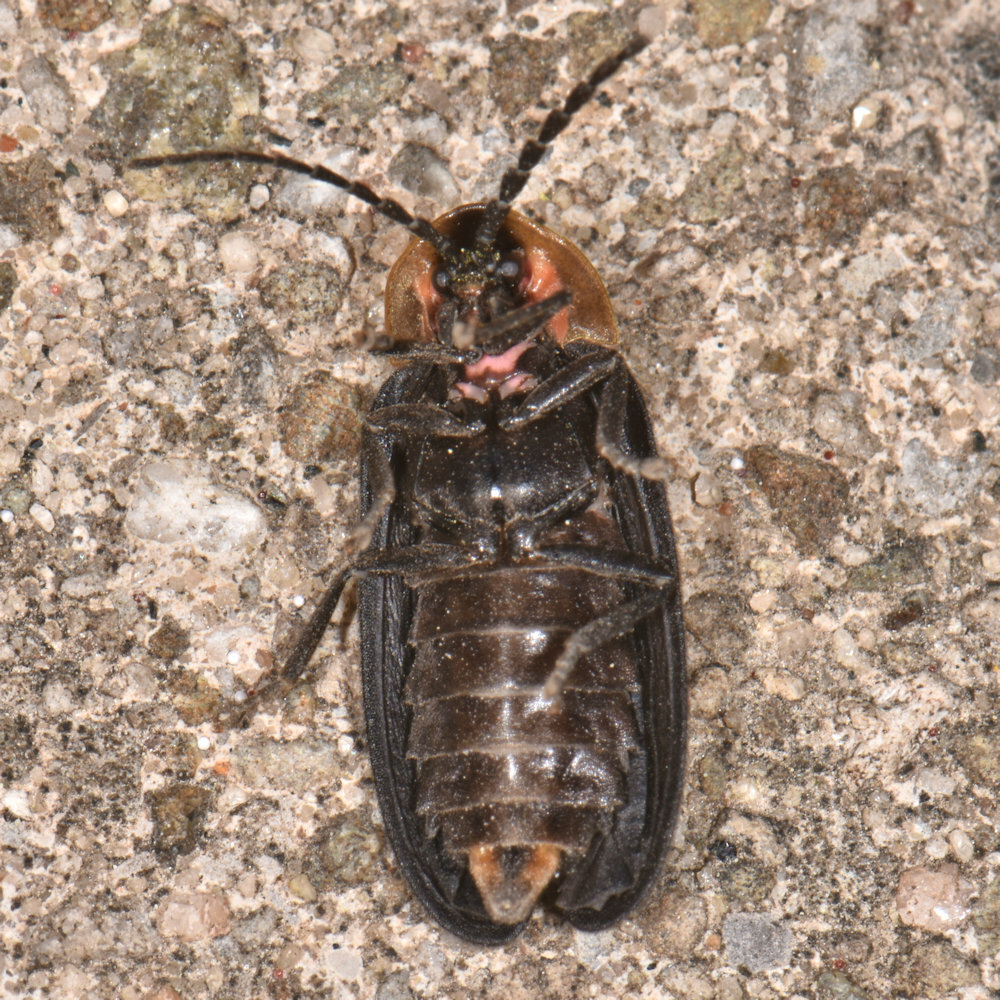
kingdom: Animalia
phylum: Arthropoda
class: Insecta
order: Coleoptera
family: Lampyridae
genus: Lucidota
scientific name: Lucidota atra
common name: Black firefly
